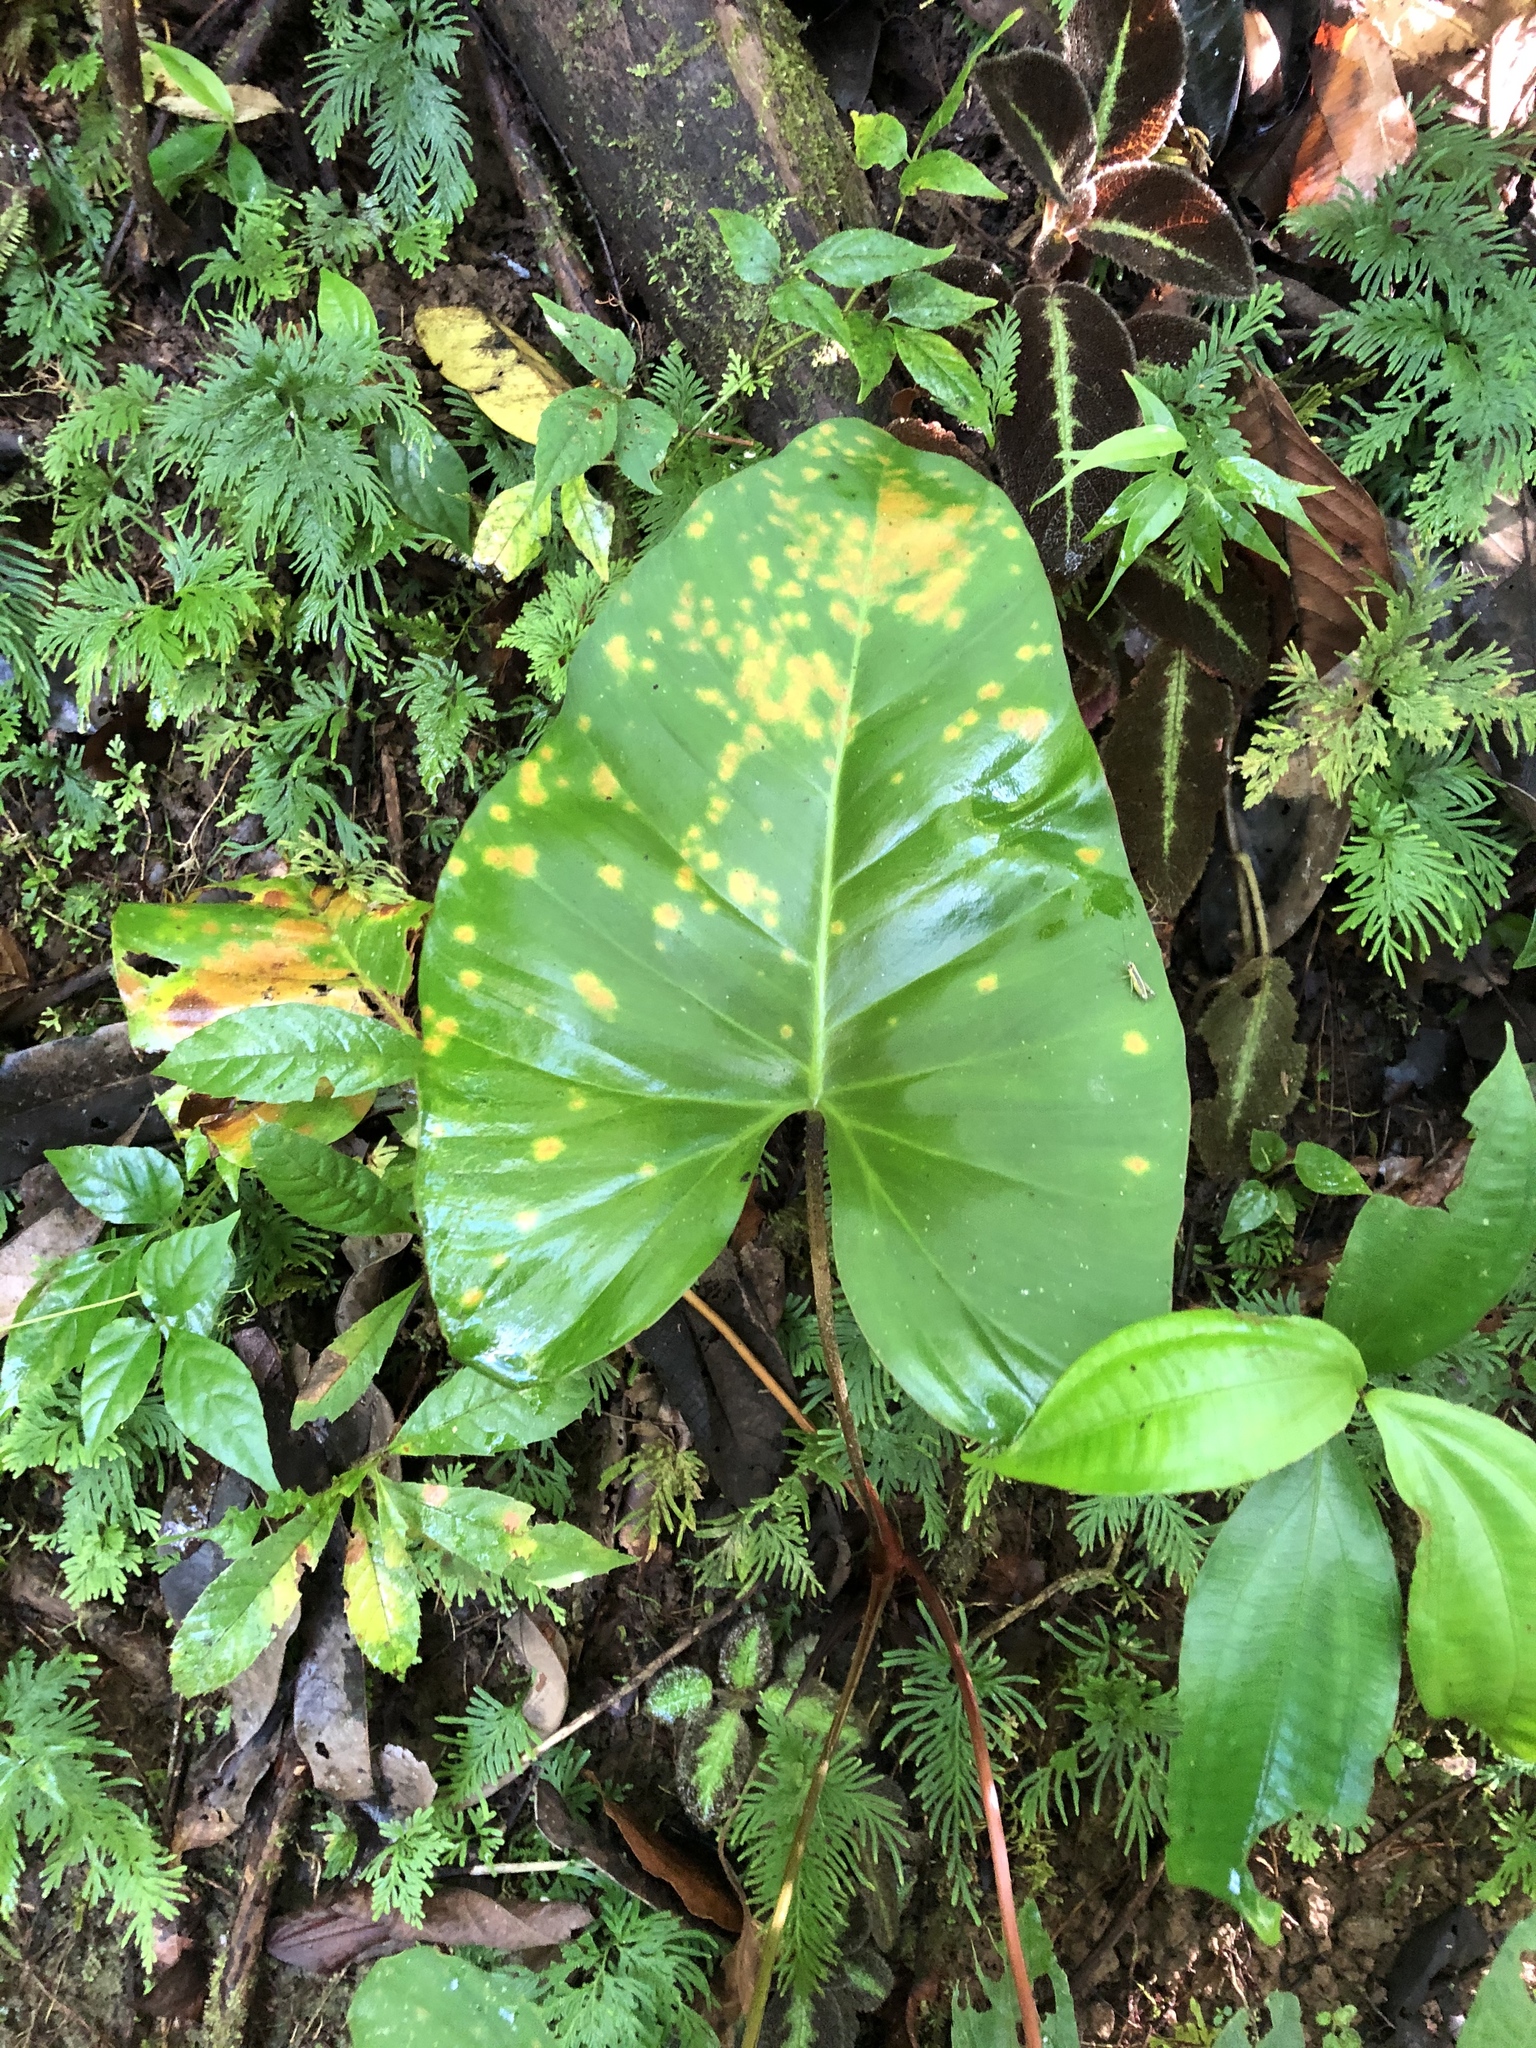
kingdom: Plantae
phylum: Tracheophyta
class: Liliopsida
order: Alismatales
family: Araceae
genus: Adelonema
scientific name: Adelonema wendlandii
